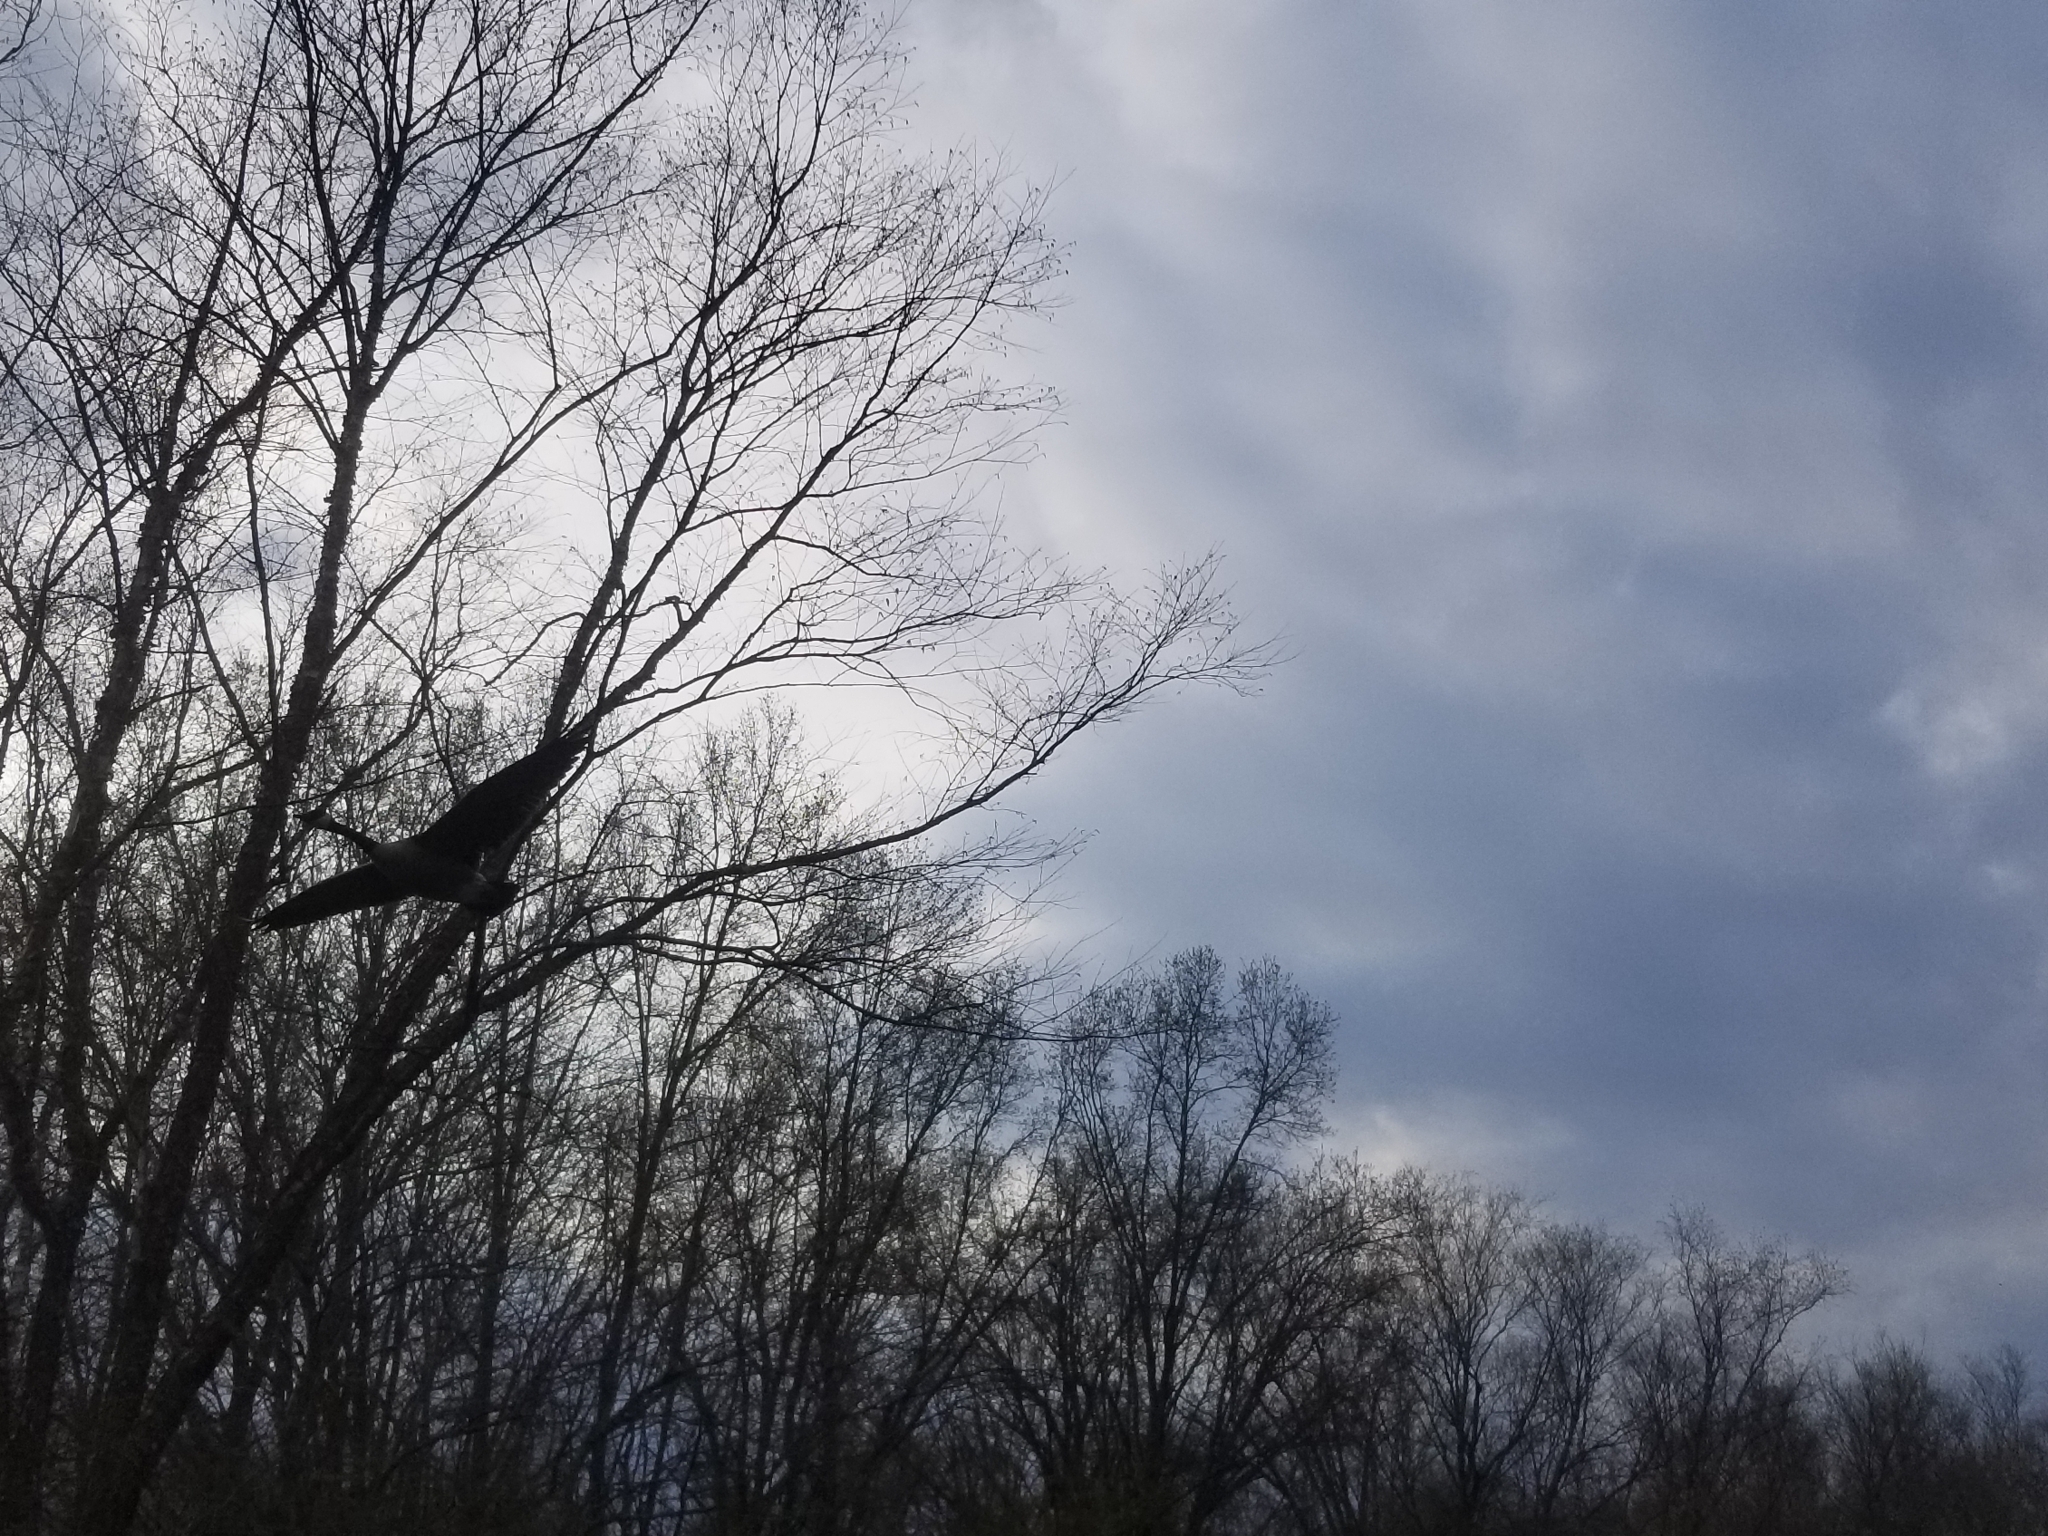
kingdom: Animalia
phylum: Chordata
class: Aves
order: Anseriformes
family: Anatidae
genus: Branta
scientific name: Branta canadensis
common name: Canada goose
